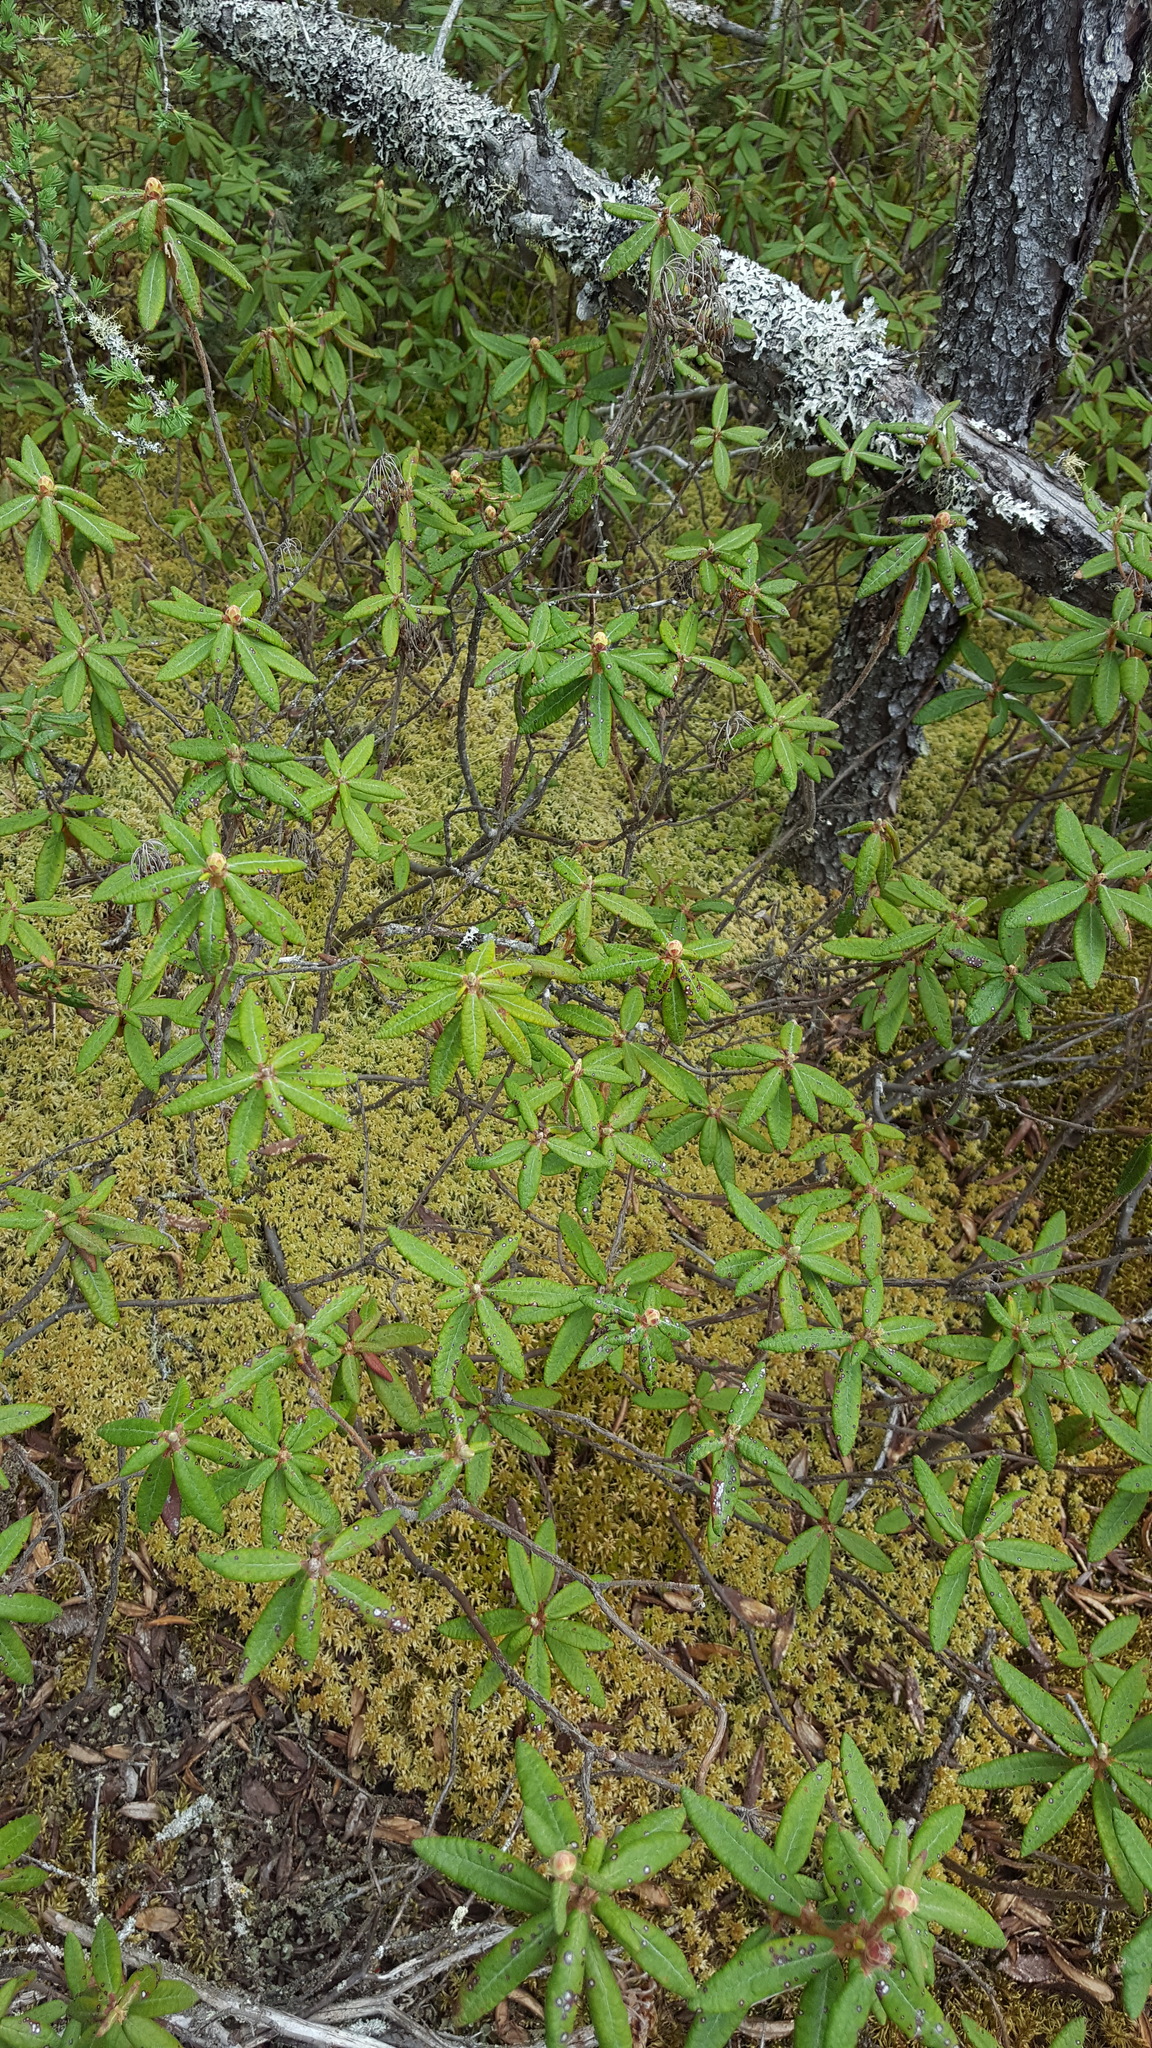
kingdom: Plantae
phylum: Tracheophyta
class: Magnoliopsida
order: Ericales
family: Ericaceae
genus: Rhododendron
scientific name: Rhododendron groenlandicum
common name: Bog labrador tea
